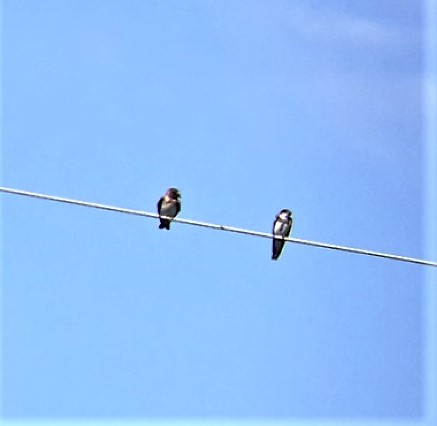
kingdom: Animalia
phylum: Chordata
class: Aves
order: Passeriformes
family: Hirundinidae
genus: Riparia
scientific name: Riparia riparia
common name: Sand martin
